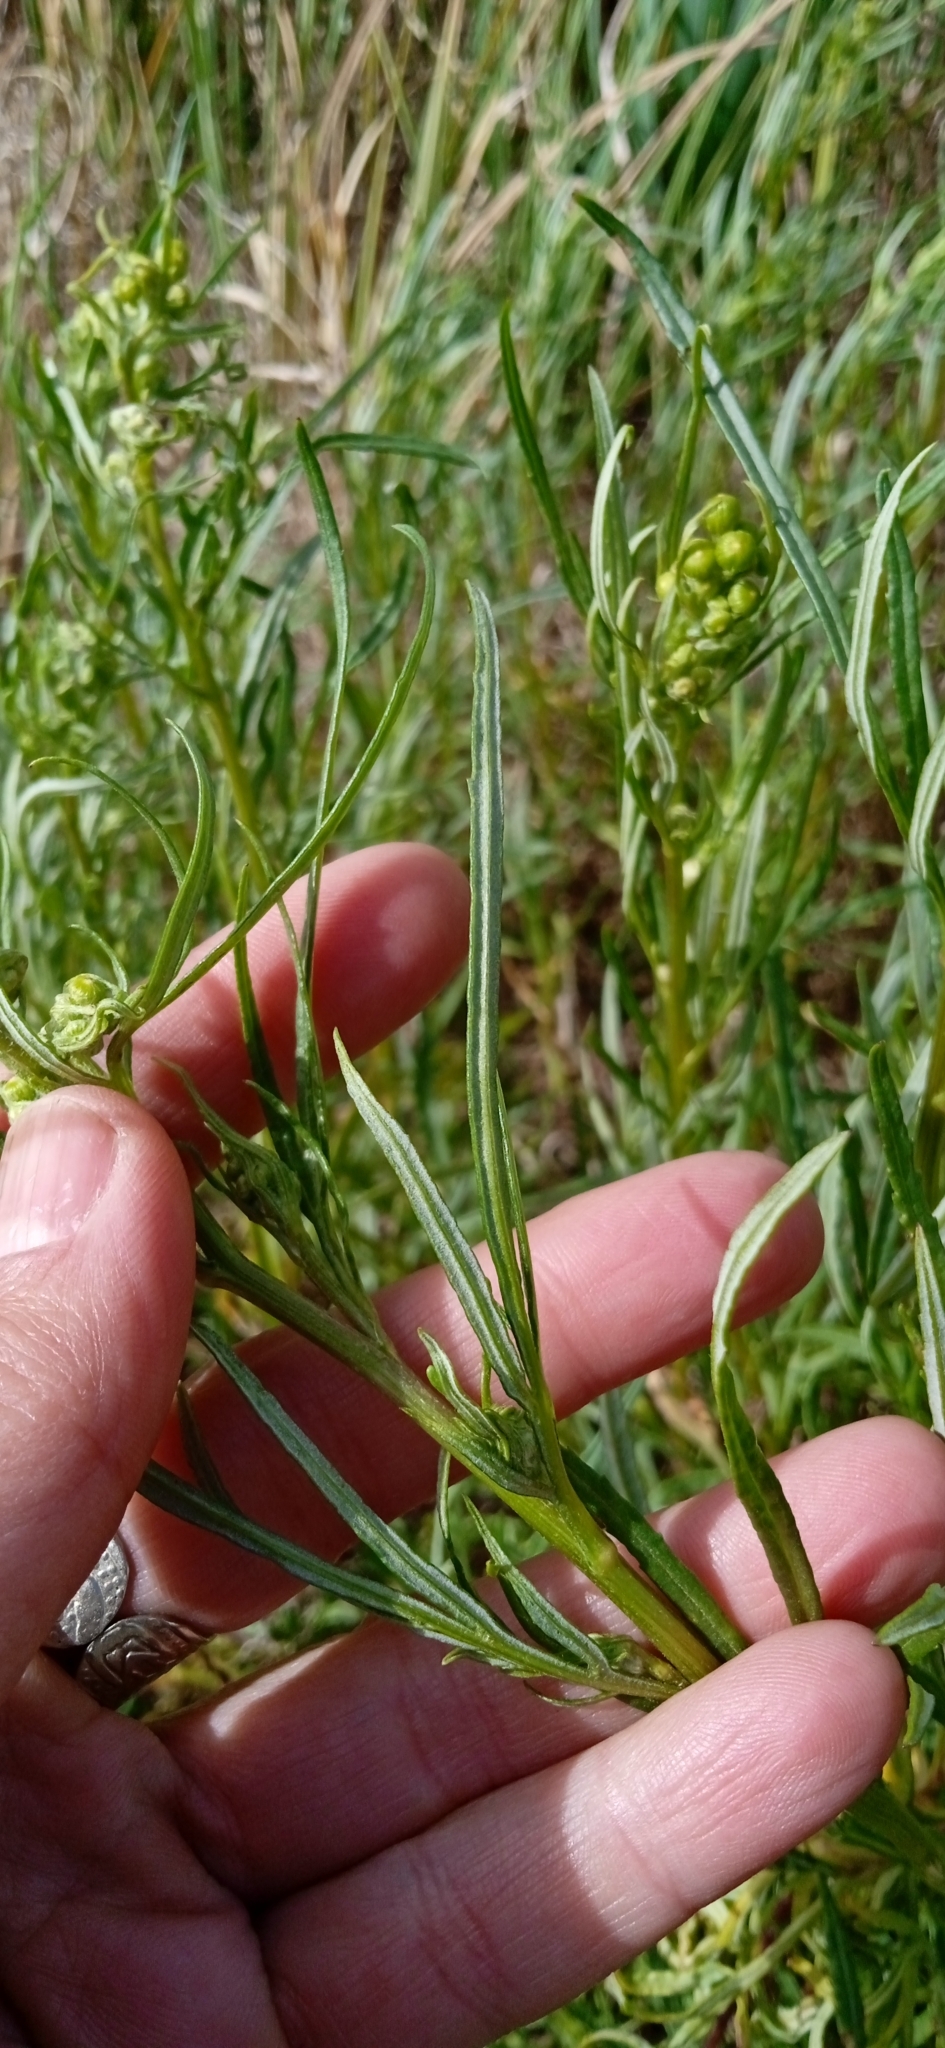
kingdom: Plantae
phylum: Tracheophyta
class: Magnoliopsida
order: Asterales
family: Asteraceae
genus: Senecio
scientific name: Senecio brasiliensis
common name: Hemp-leaf ragwort
